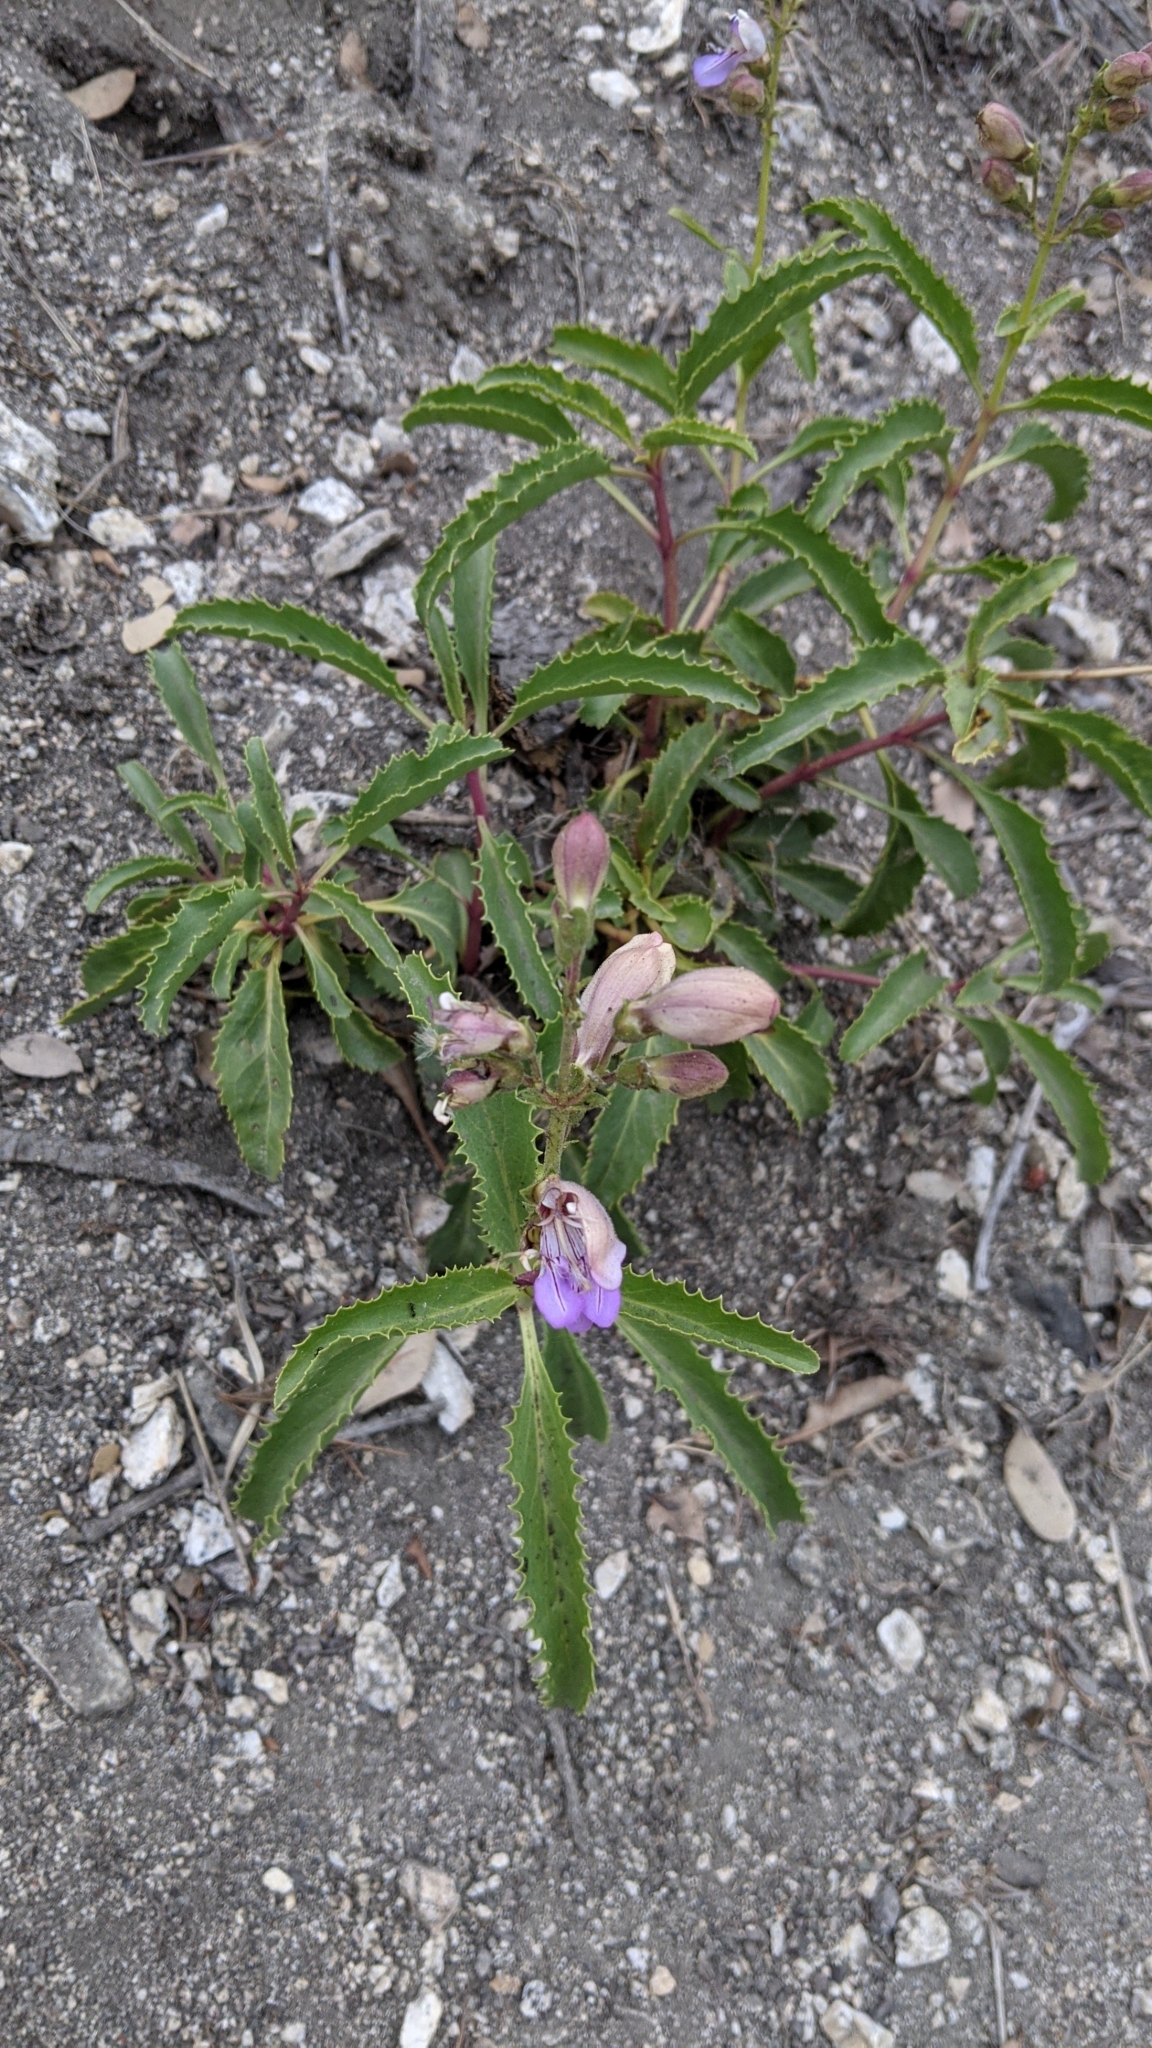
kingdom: Plantae
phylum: Tracheophyta
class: Magnoliopsida
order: Lamiales
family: Plantaginaceae
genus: Penstemon
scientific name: Penstemon grinnellii
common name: Grinnell's beardtongue
